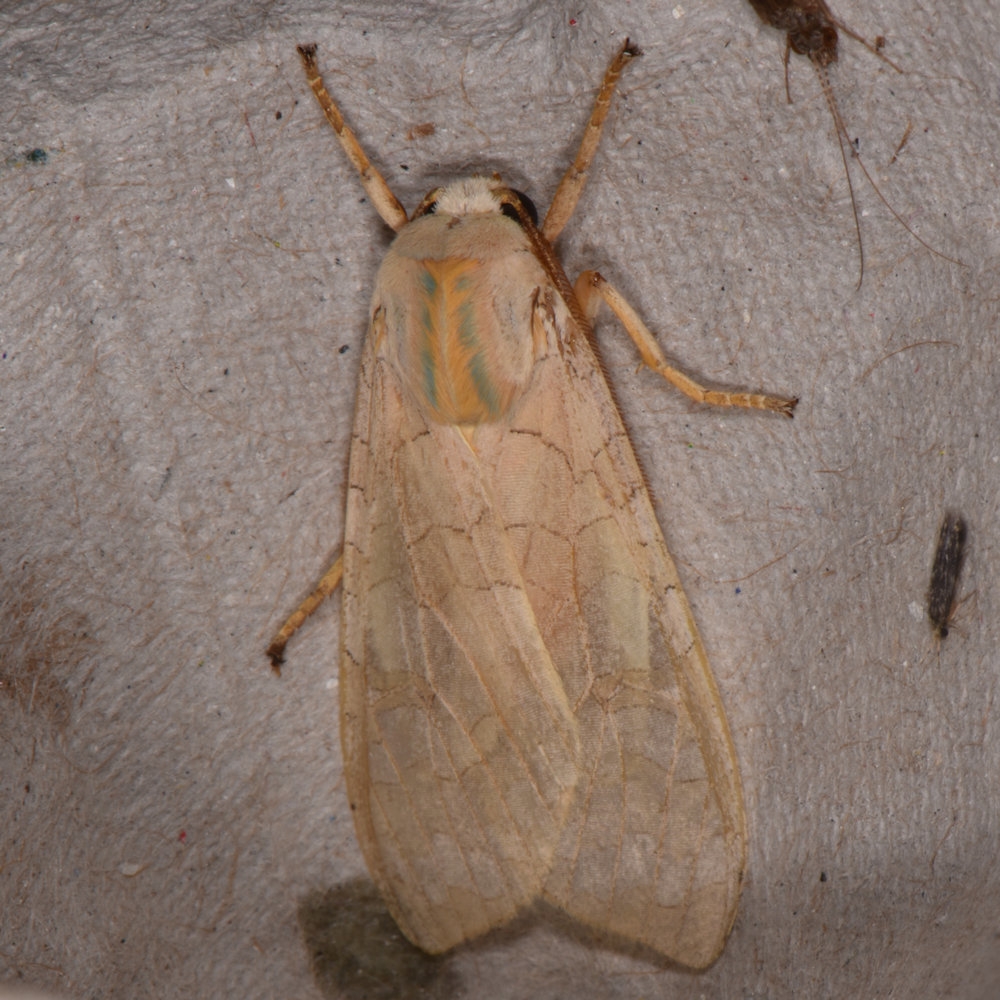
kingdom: Animalia
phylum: Arthropoda
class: Insecta
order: Lepidoptera
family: Erebidae
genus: Halysidota
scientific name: Halysidota tessellaris
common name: Banded tussock moth
